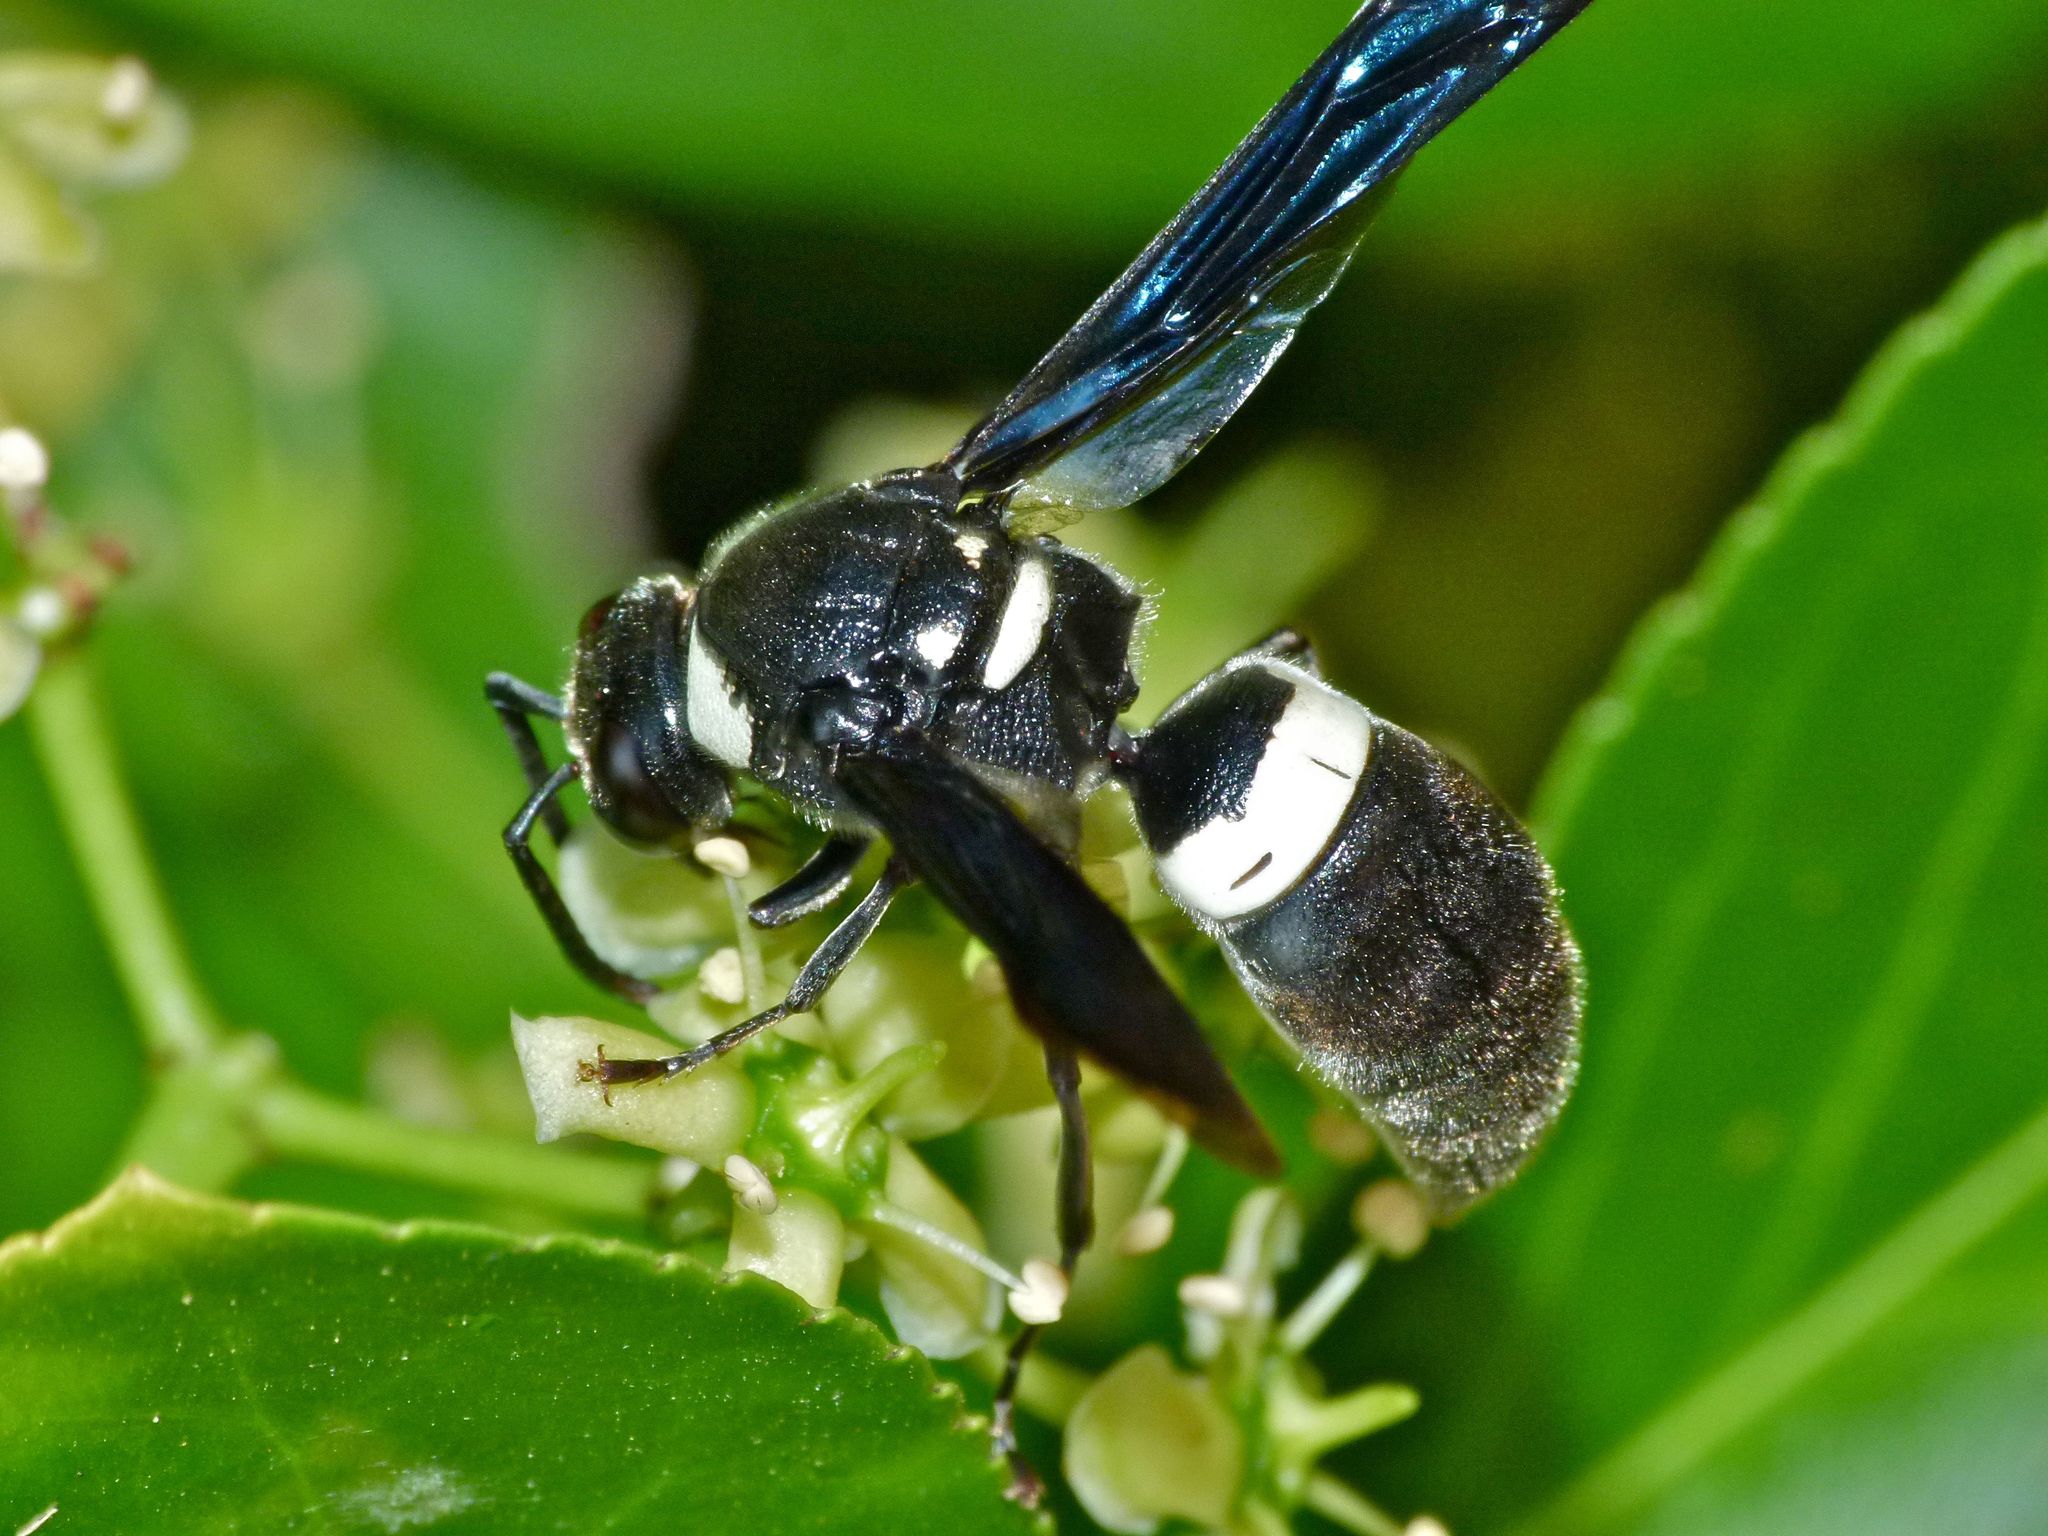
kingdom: Animalia
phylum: Arthropoda
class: Insecta
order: Hymenoptera
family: Eumenidae
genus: Monobia
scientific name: Monobia quadridens
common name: Four-toothed mason wasp
